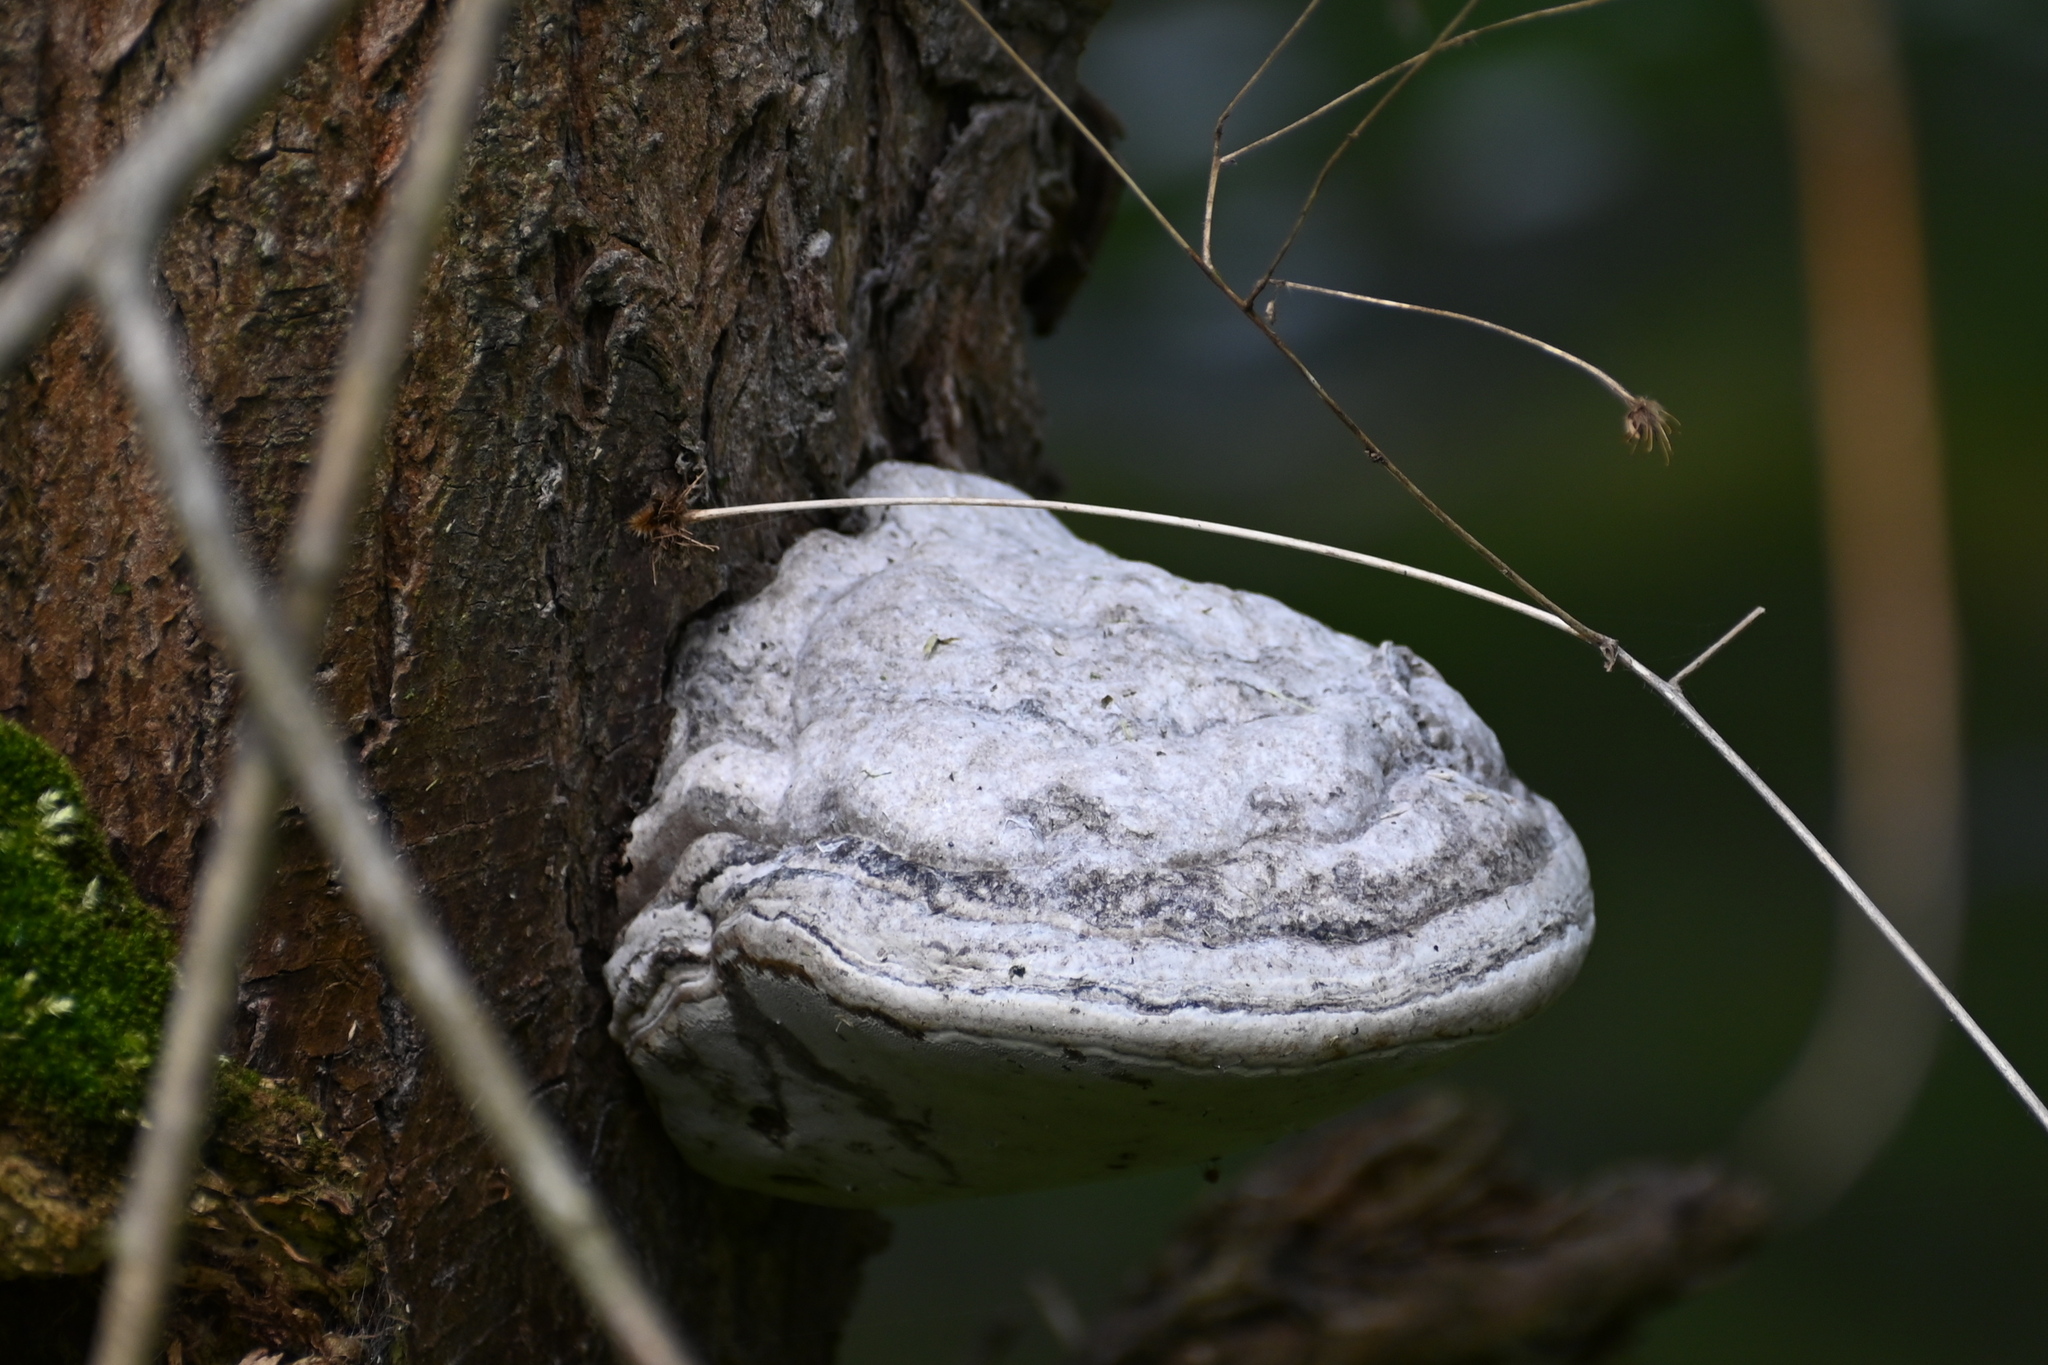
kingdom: Fungi
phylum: Basidiomycota
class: Agaricomycetes
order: Polyporales
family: Polyporaceae
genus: Fomes
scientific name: Fomes fomentarius
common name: Hoof fungus
